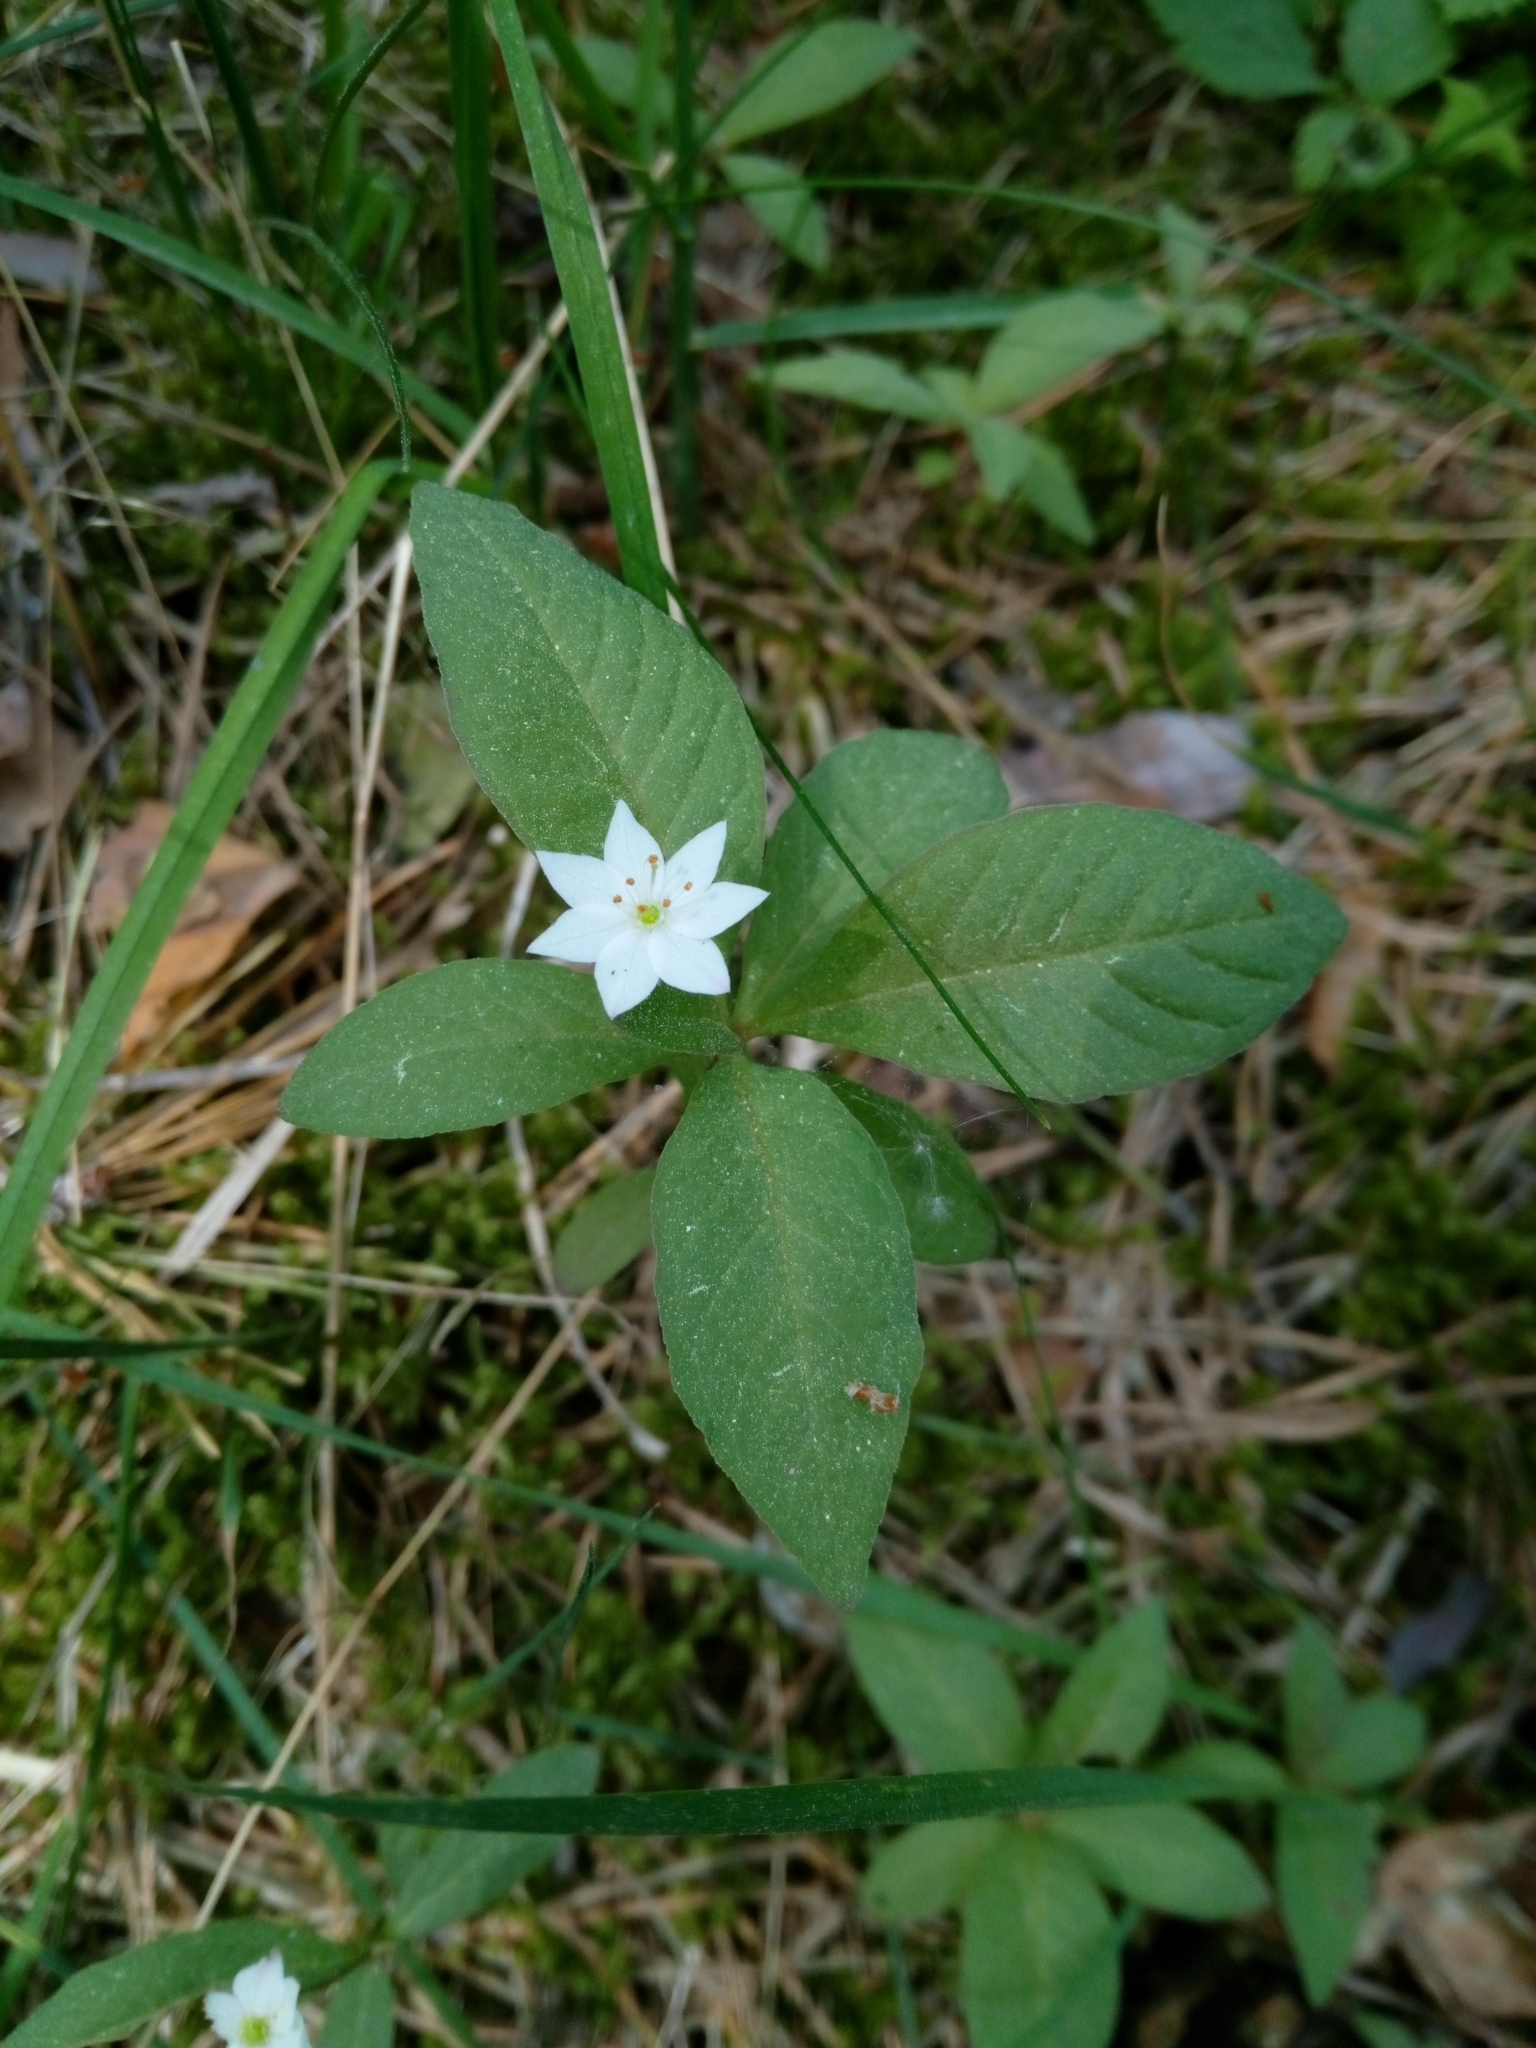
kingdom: Plantae
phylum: Tracheophyta
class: Magnoliopsida
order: Ericales
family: Primulaceae
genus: Lysimachia
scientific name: Lysimachia europaea
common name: Arctic starflower
